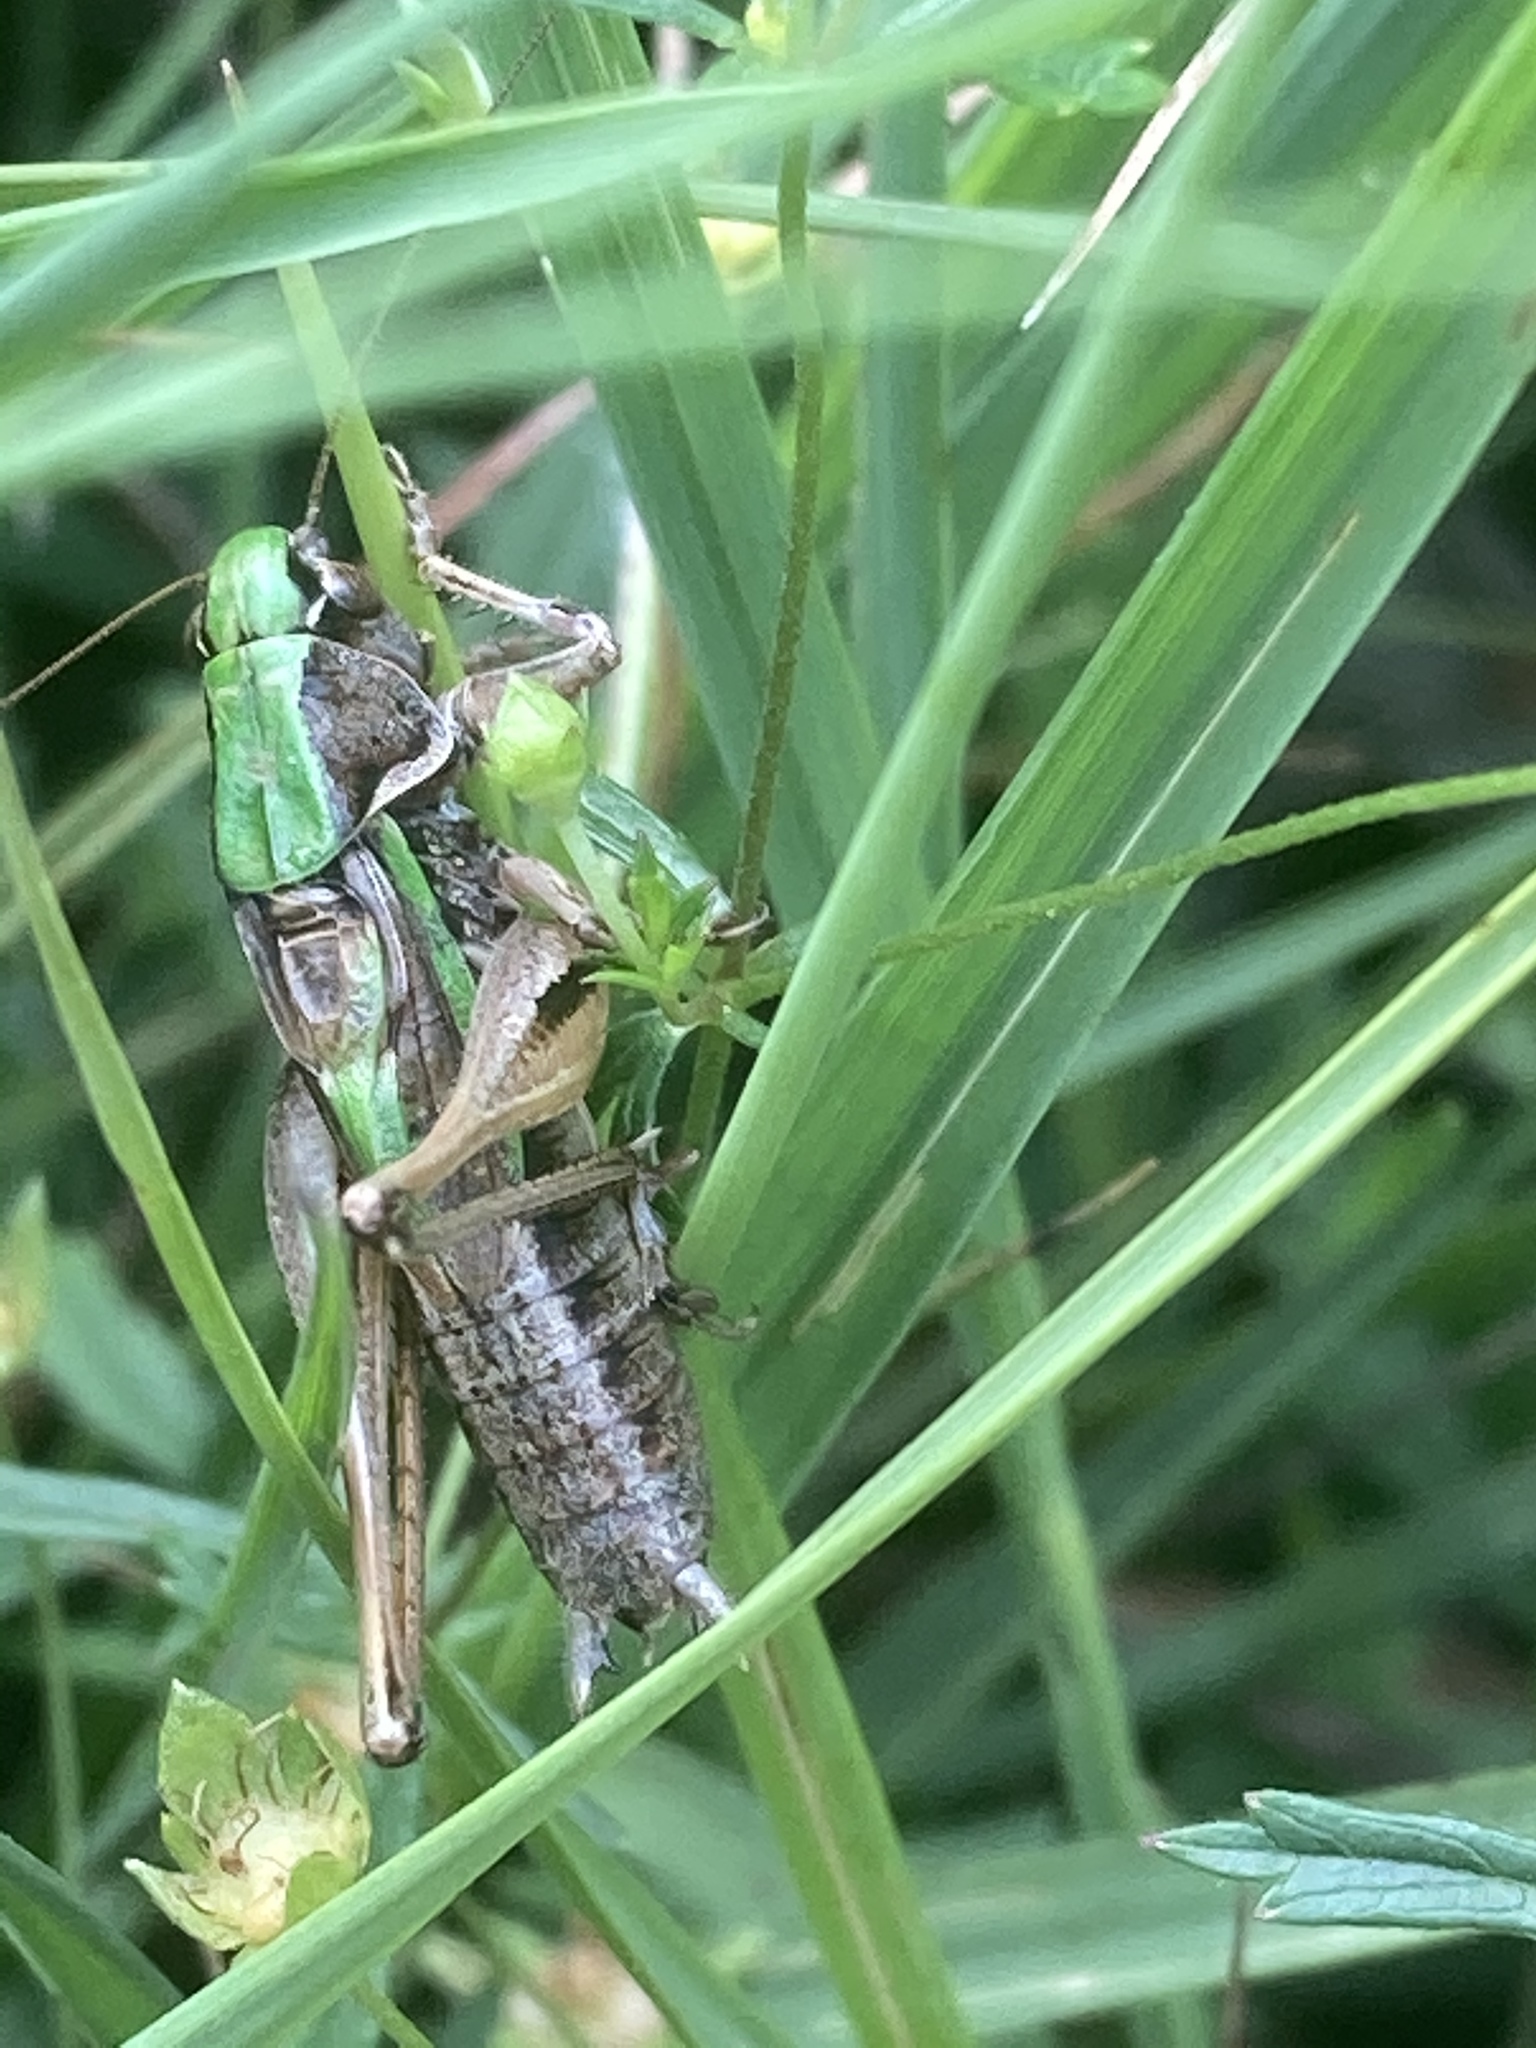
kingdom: Animalia
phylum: Arthropoda
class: Insecta
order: Orthoptera
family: Tettigoniidae
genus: Metrioptera
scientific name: Metrioptera brachyptera
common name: Bog bush-cricket
